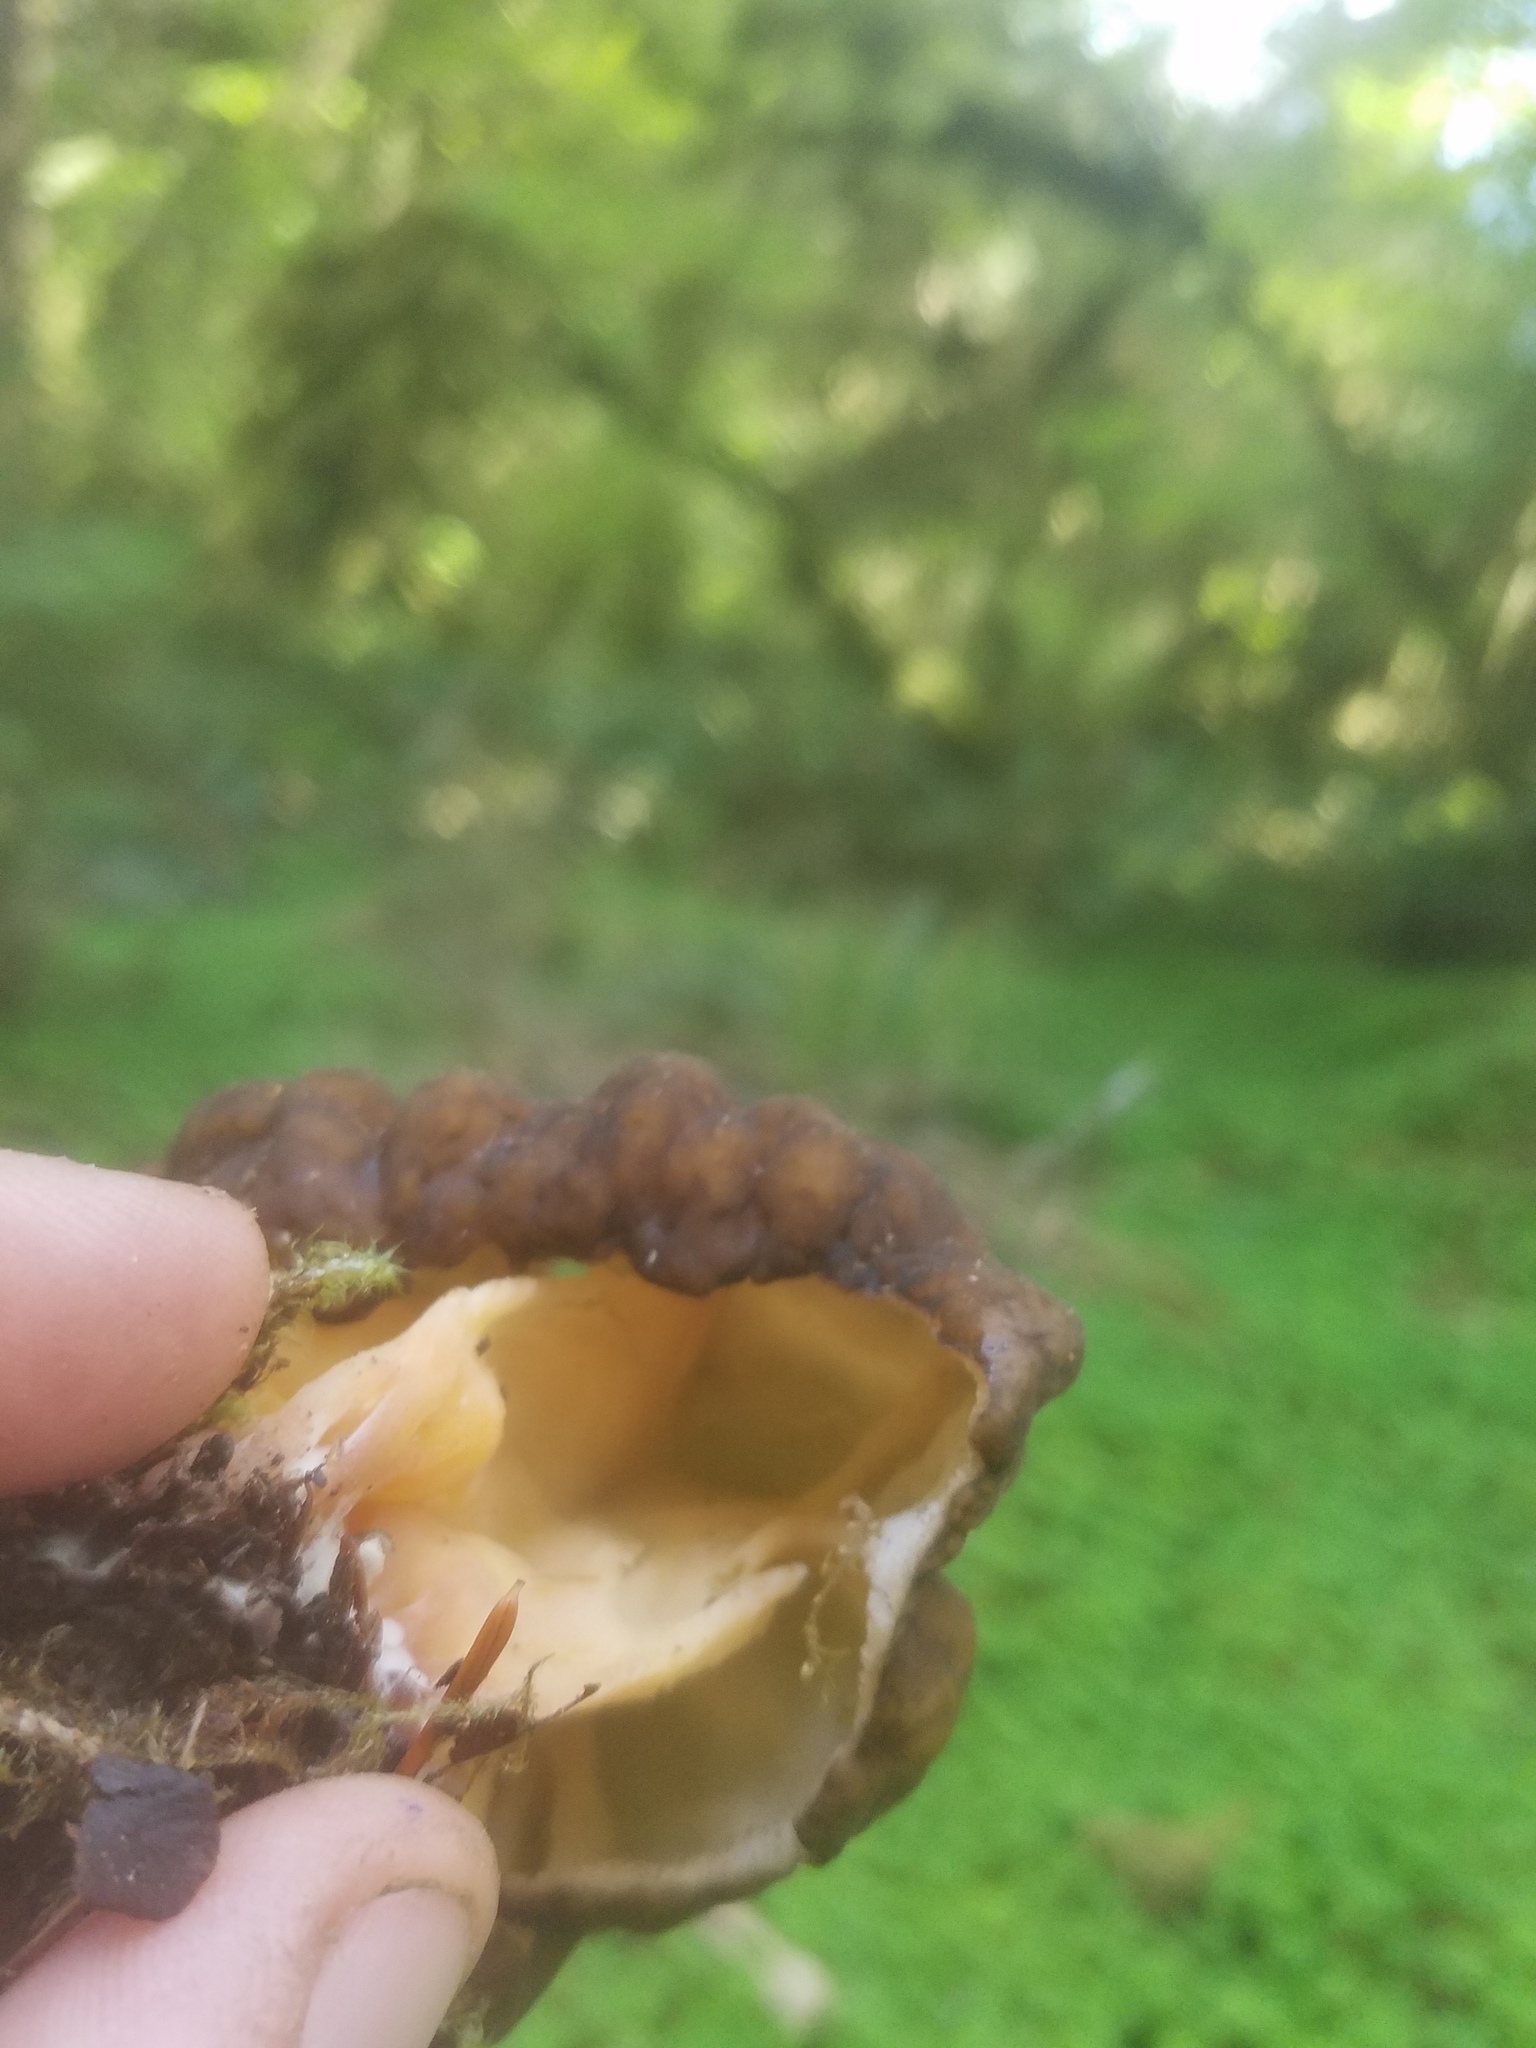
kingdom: Fungi
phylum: Ascomycota
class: Pezizomycetes
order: Pezizales
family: Discinaceae
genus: Gyromitra
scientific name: Gyromitra californica
